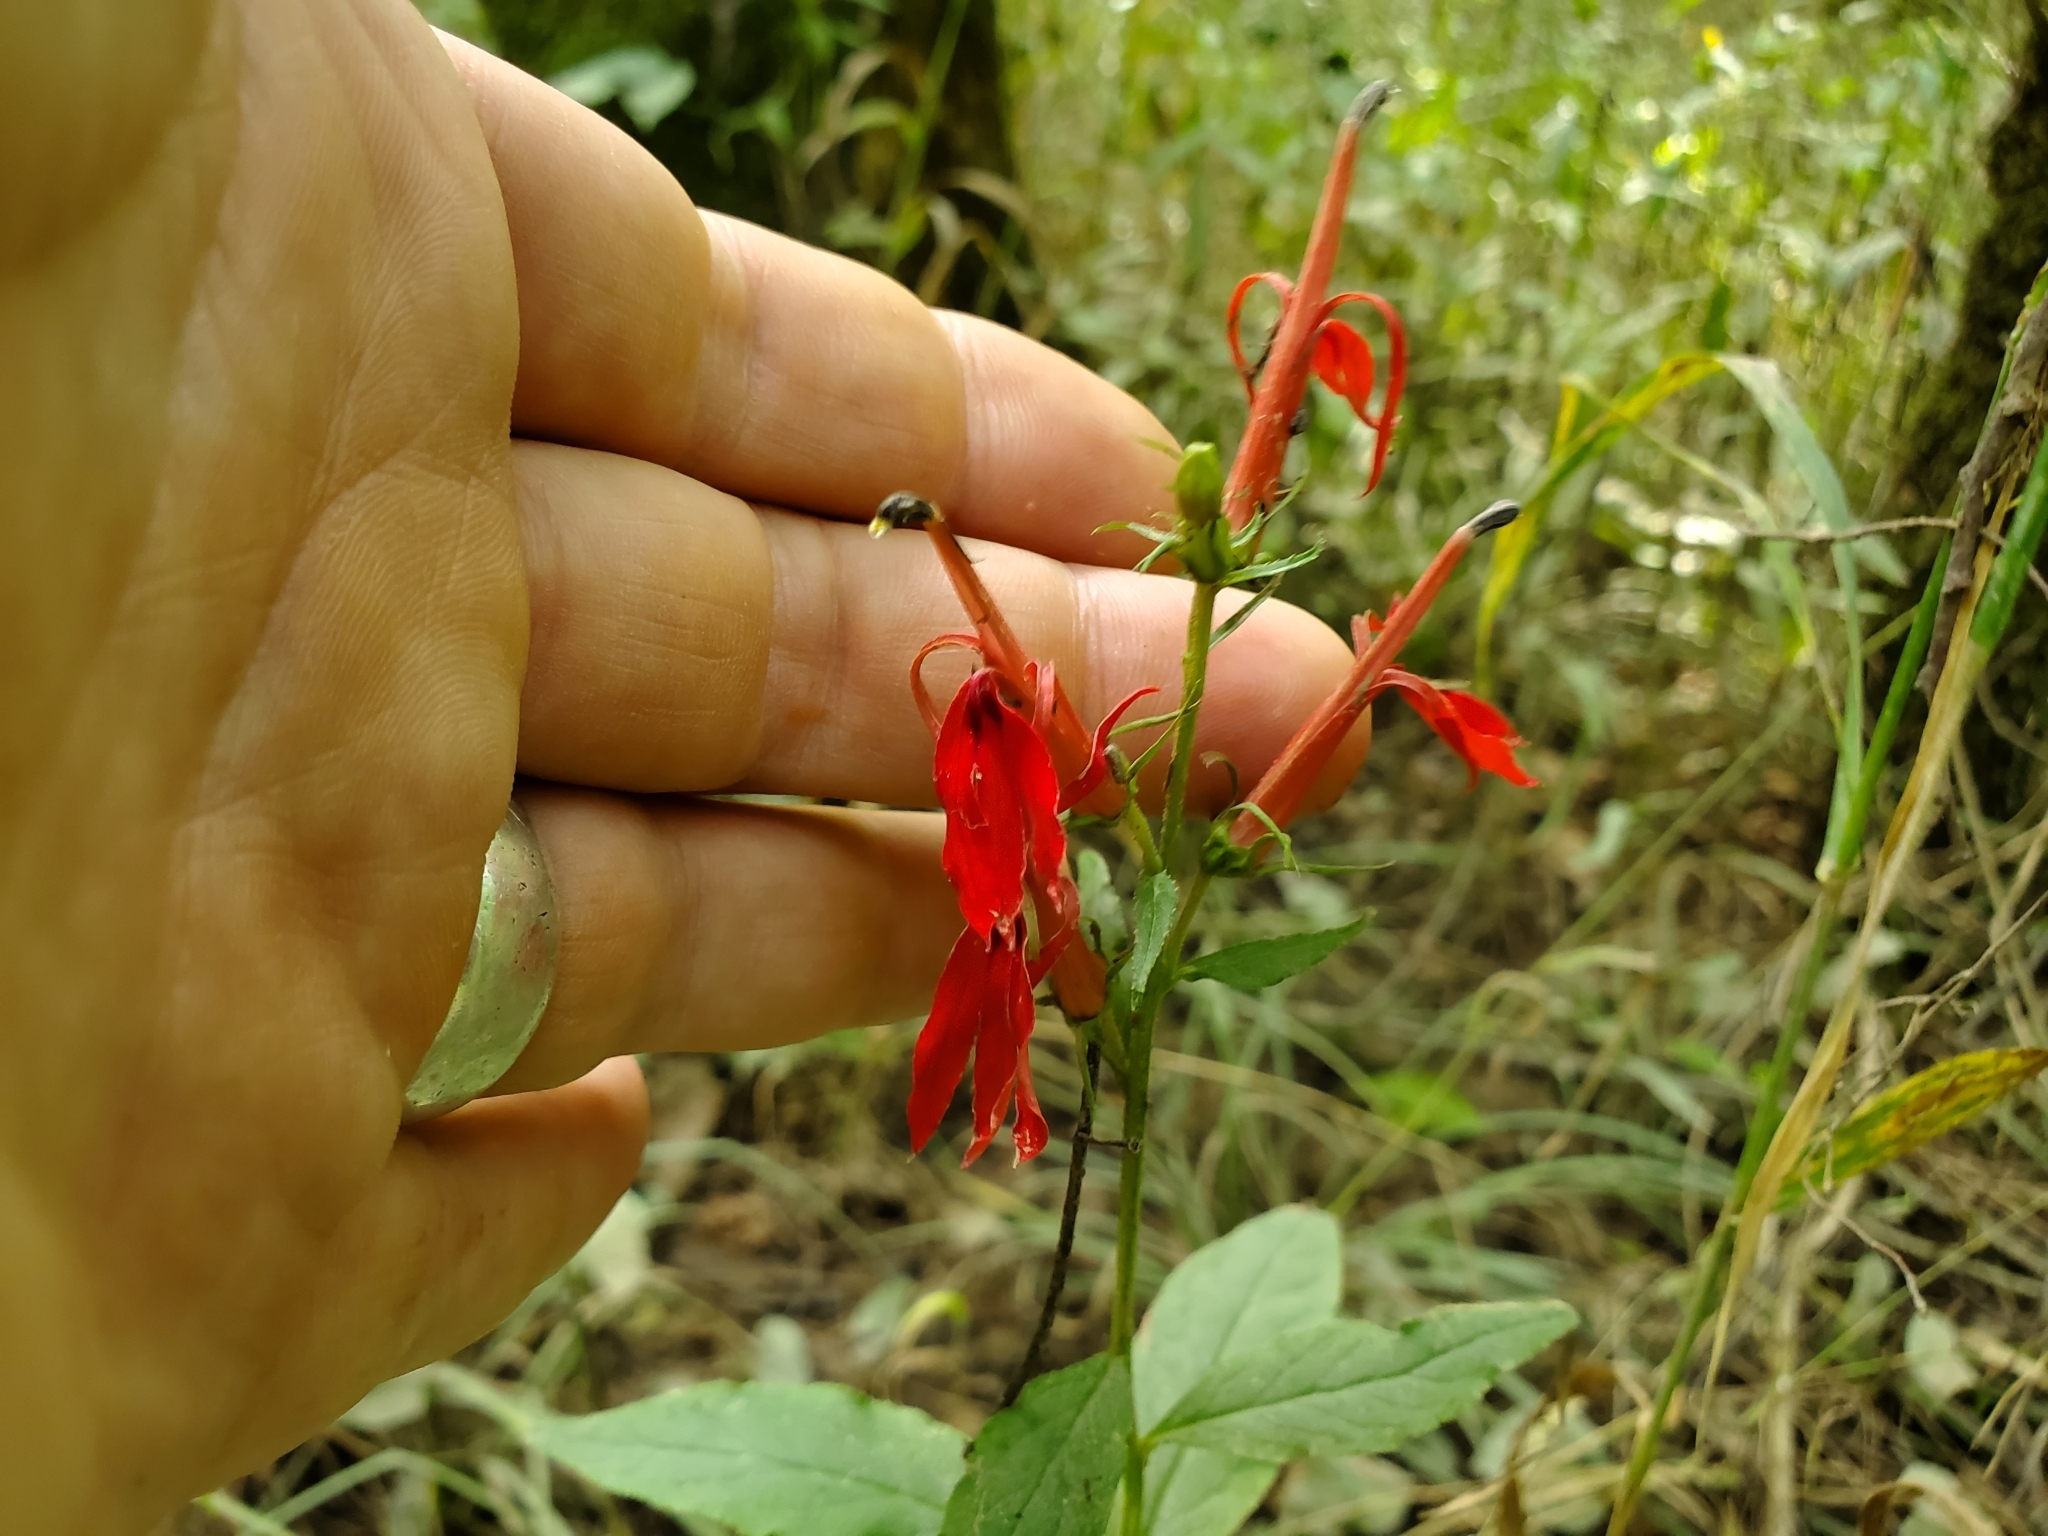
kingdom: Plantae
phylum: Tracheophyta
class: Magnoliopsida
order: Asterales
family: Campanulaceae
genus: Lobelia
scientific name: Lobelia cardinalis
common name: Cardinal flower
